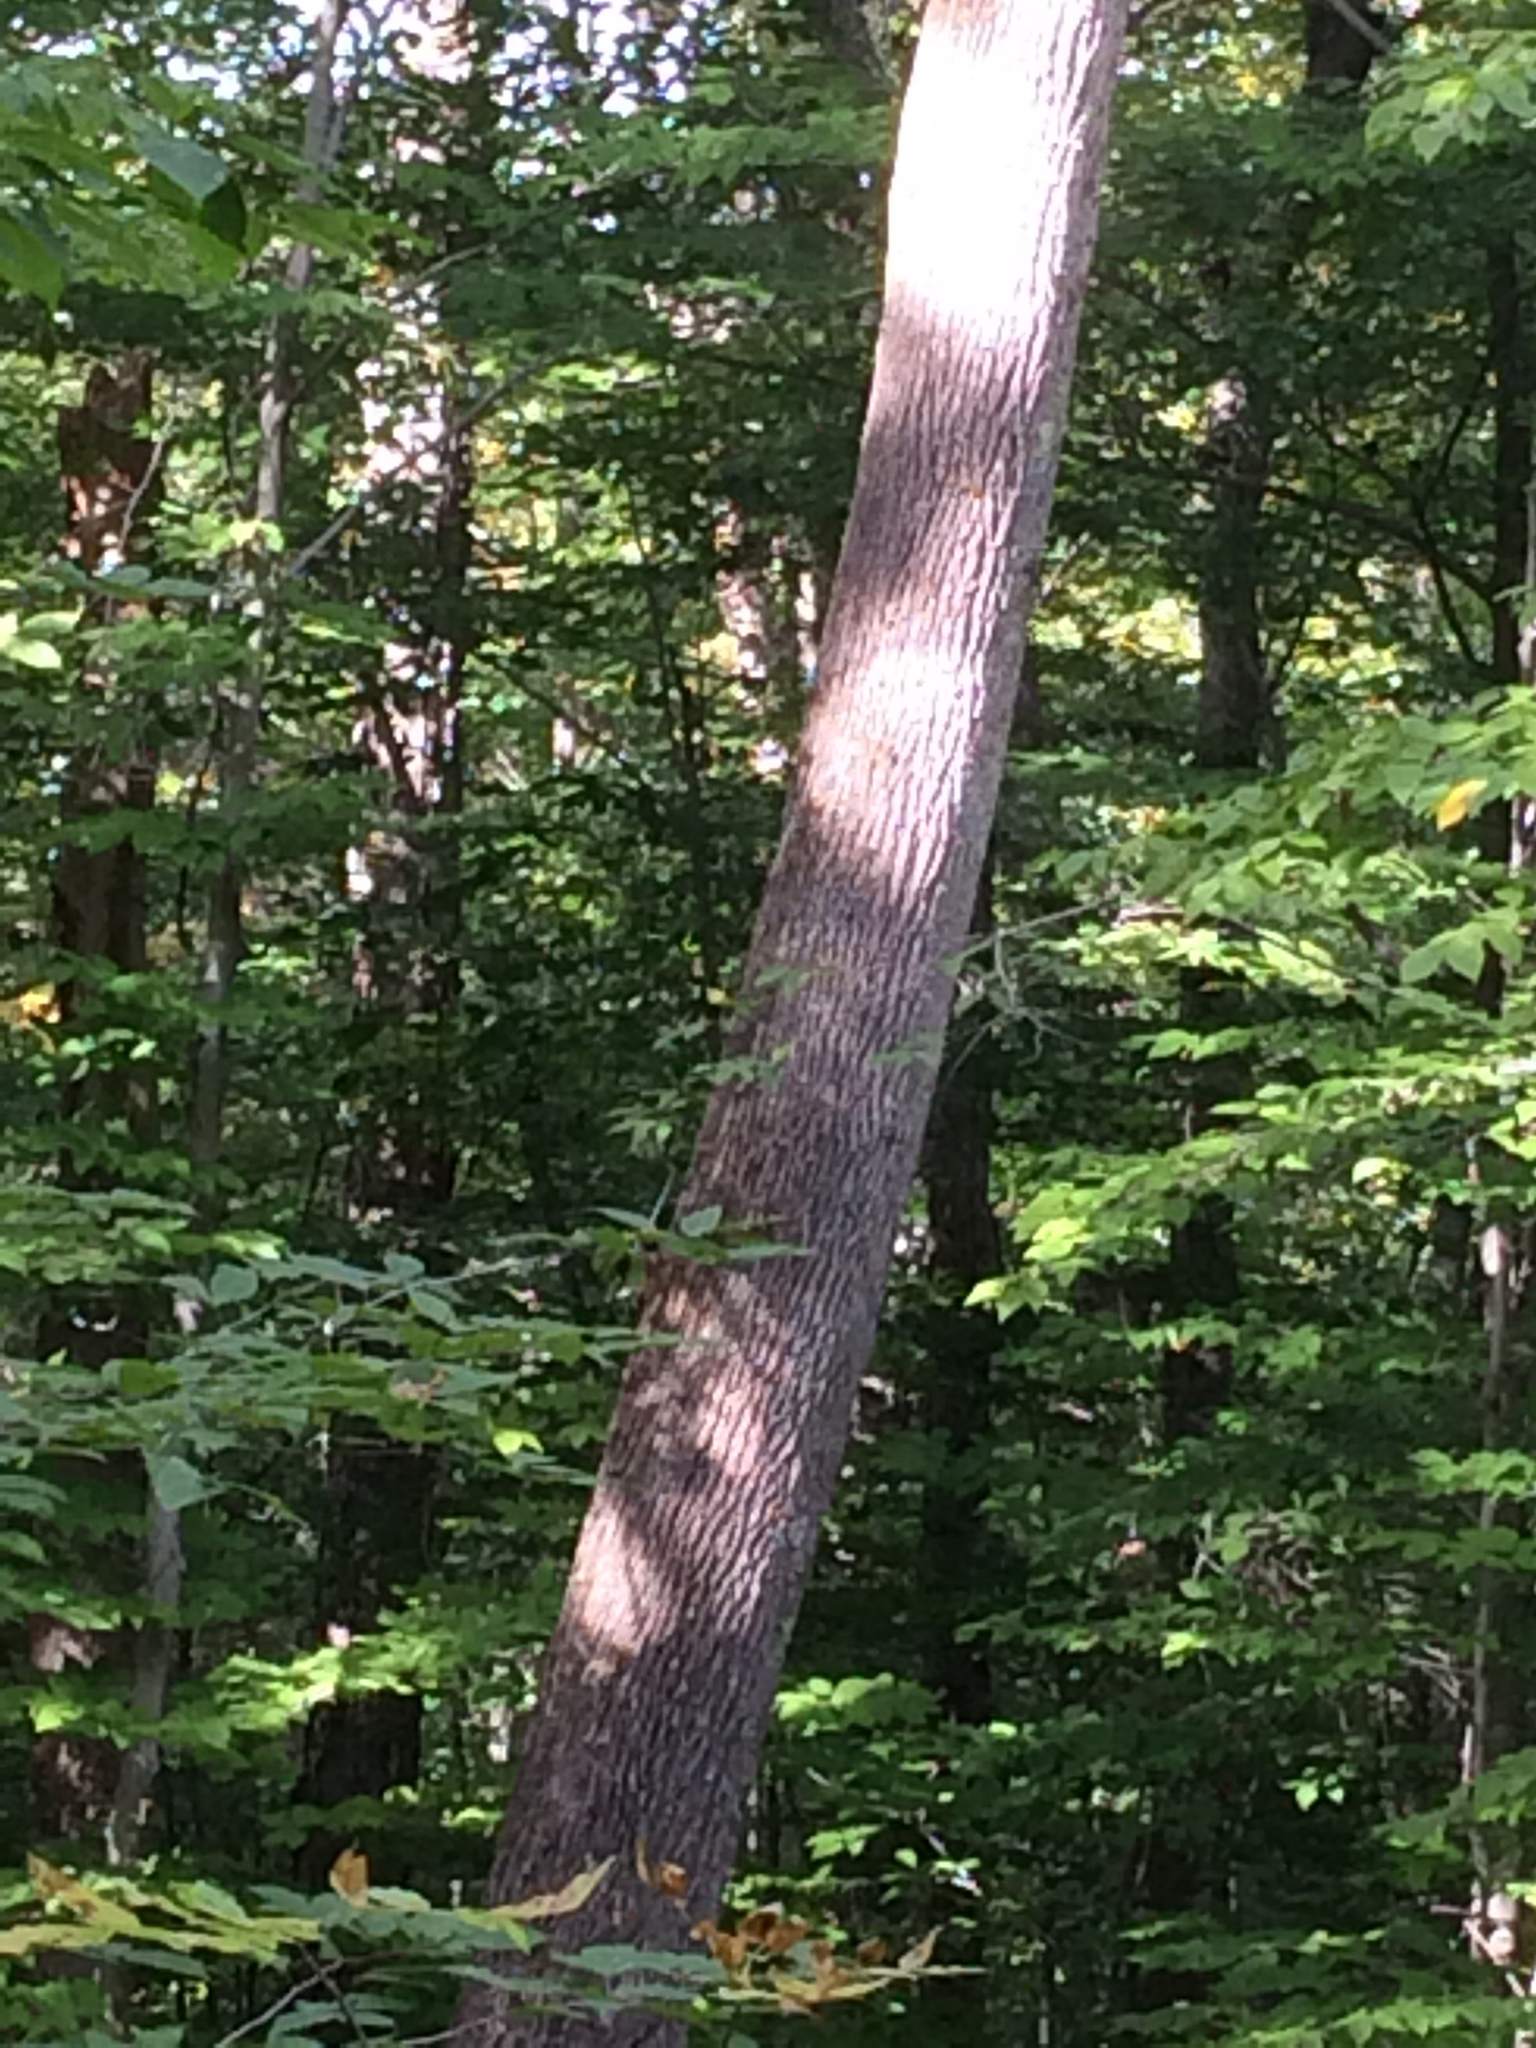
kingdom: Plantae
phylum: Tracheophyta
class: Magnoliopsida
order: Lamiales
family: Oleaceae
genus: Fraxinus
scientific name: Fraxinus americana
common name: White ash
